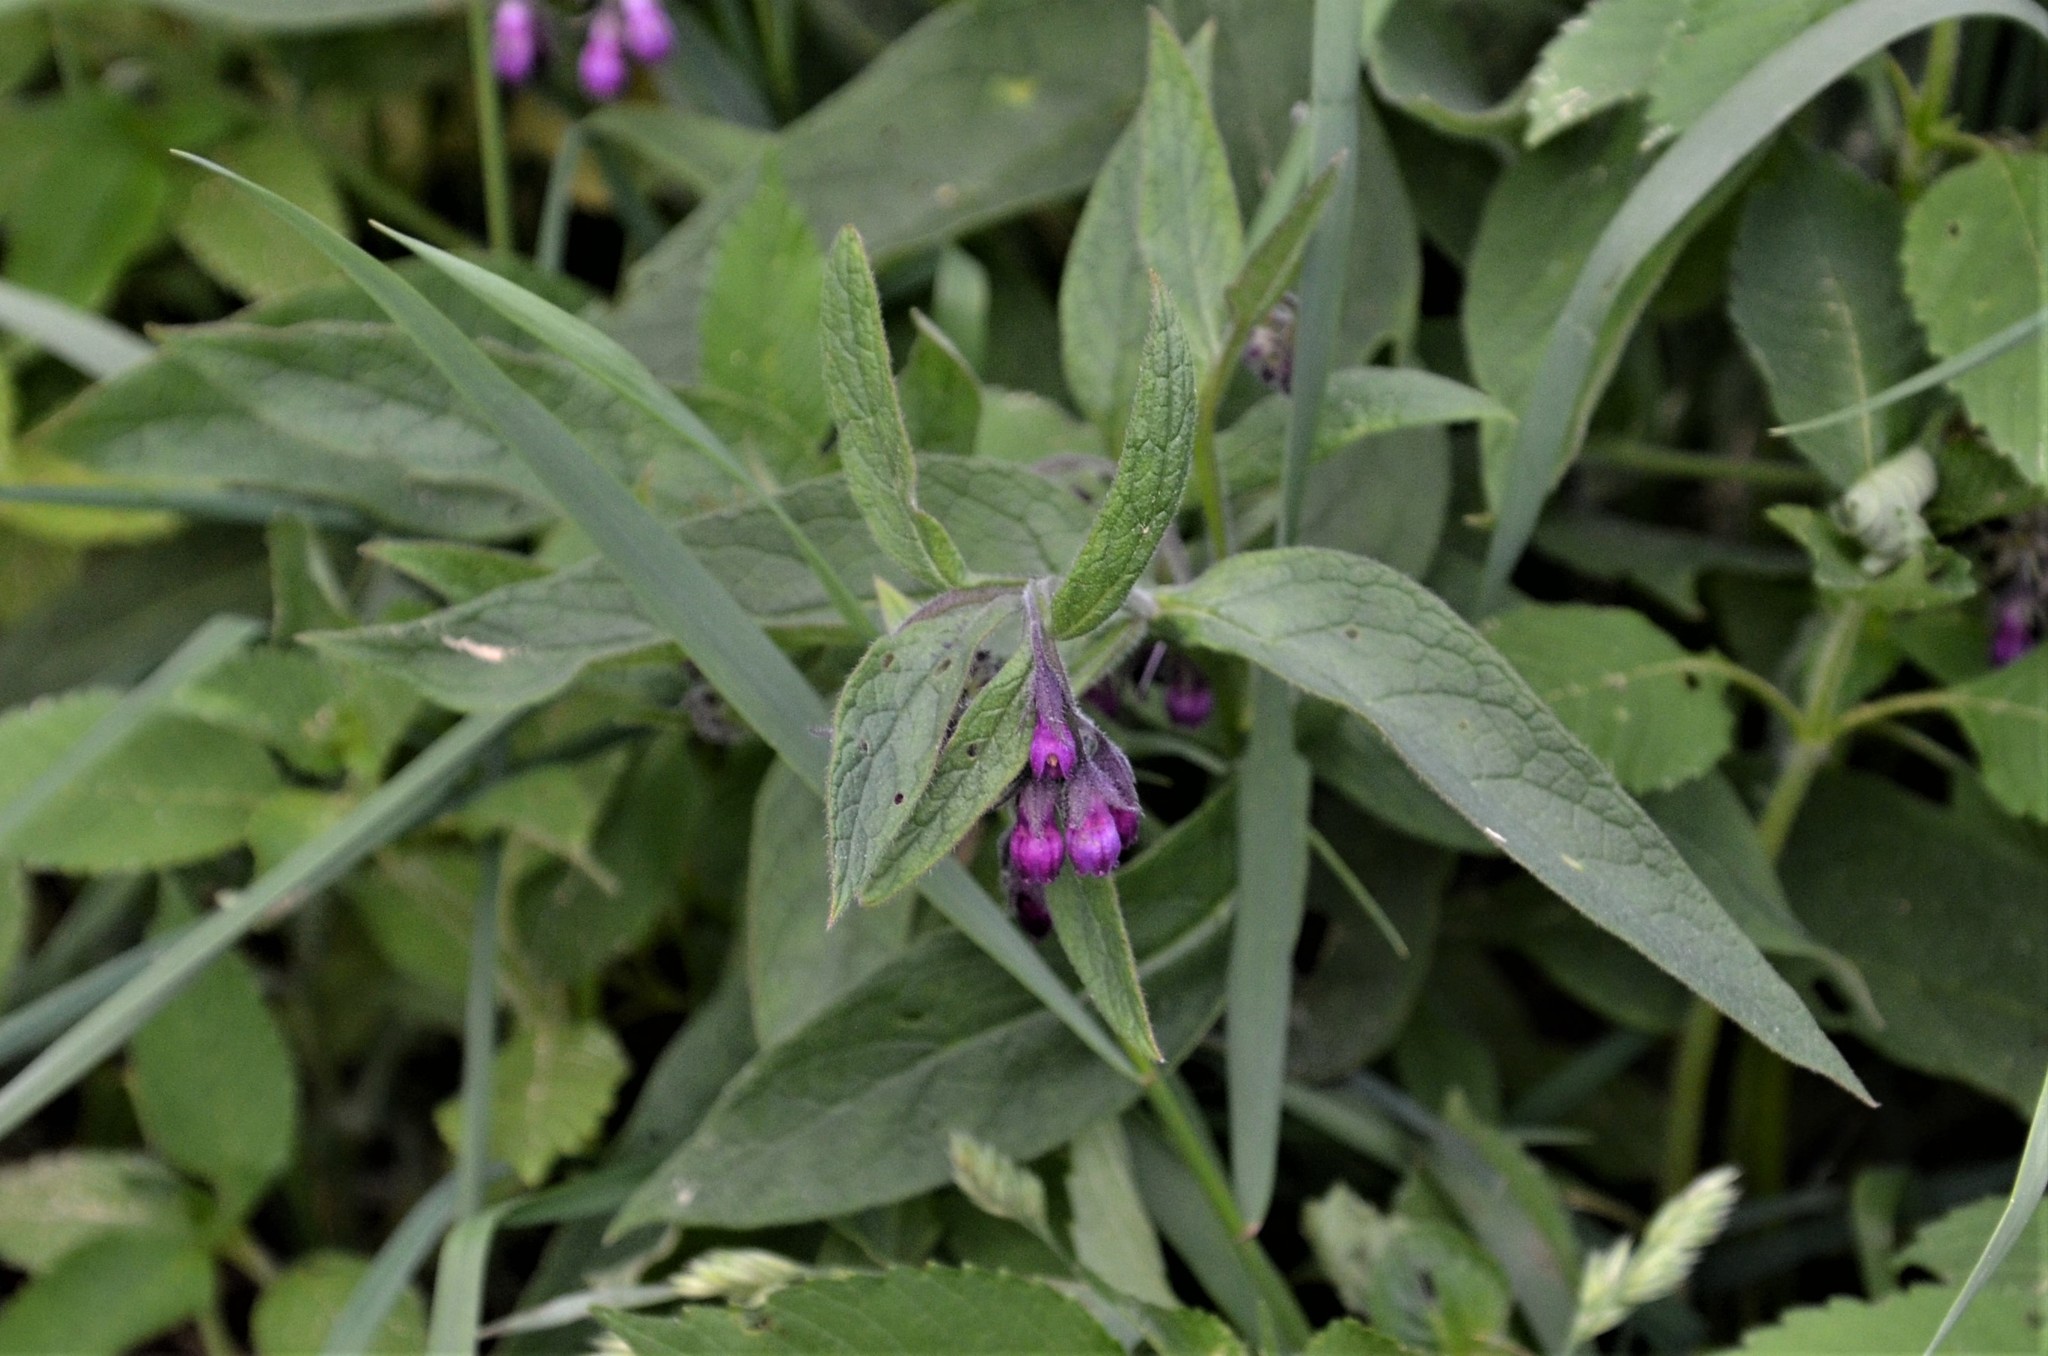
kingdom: Plantae
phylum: Tracheophyta
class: Magnoliopsida
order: Boraginales
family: Boraginaceae
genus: Symphytum
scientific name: Symphytum officinale
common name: Common comfrey
